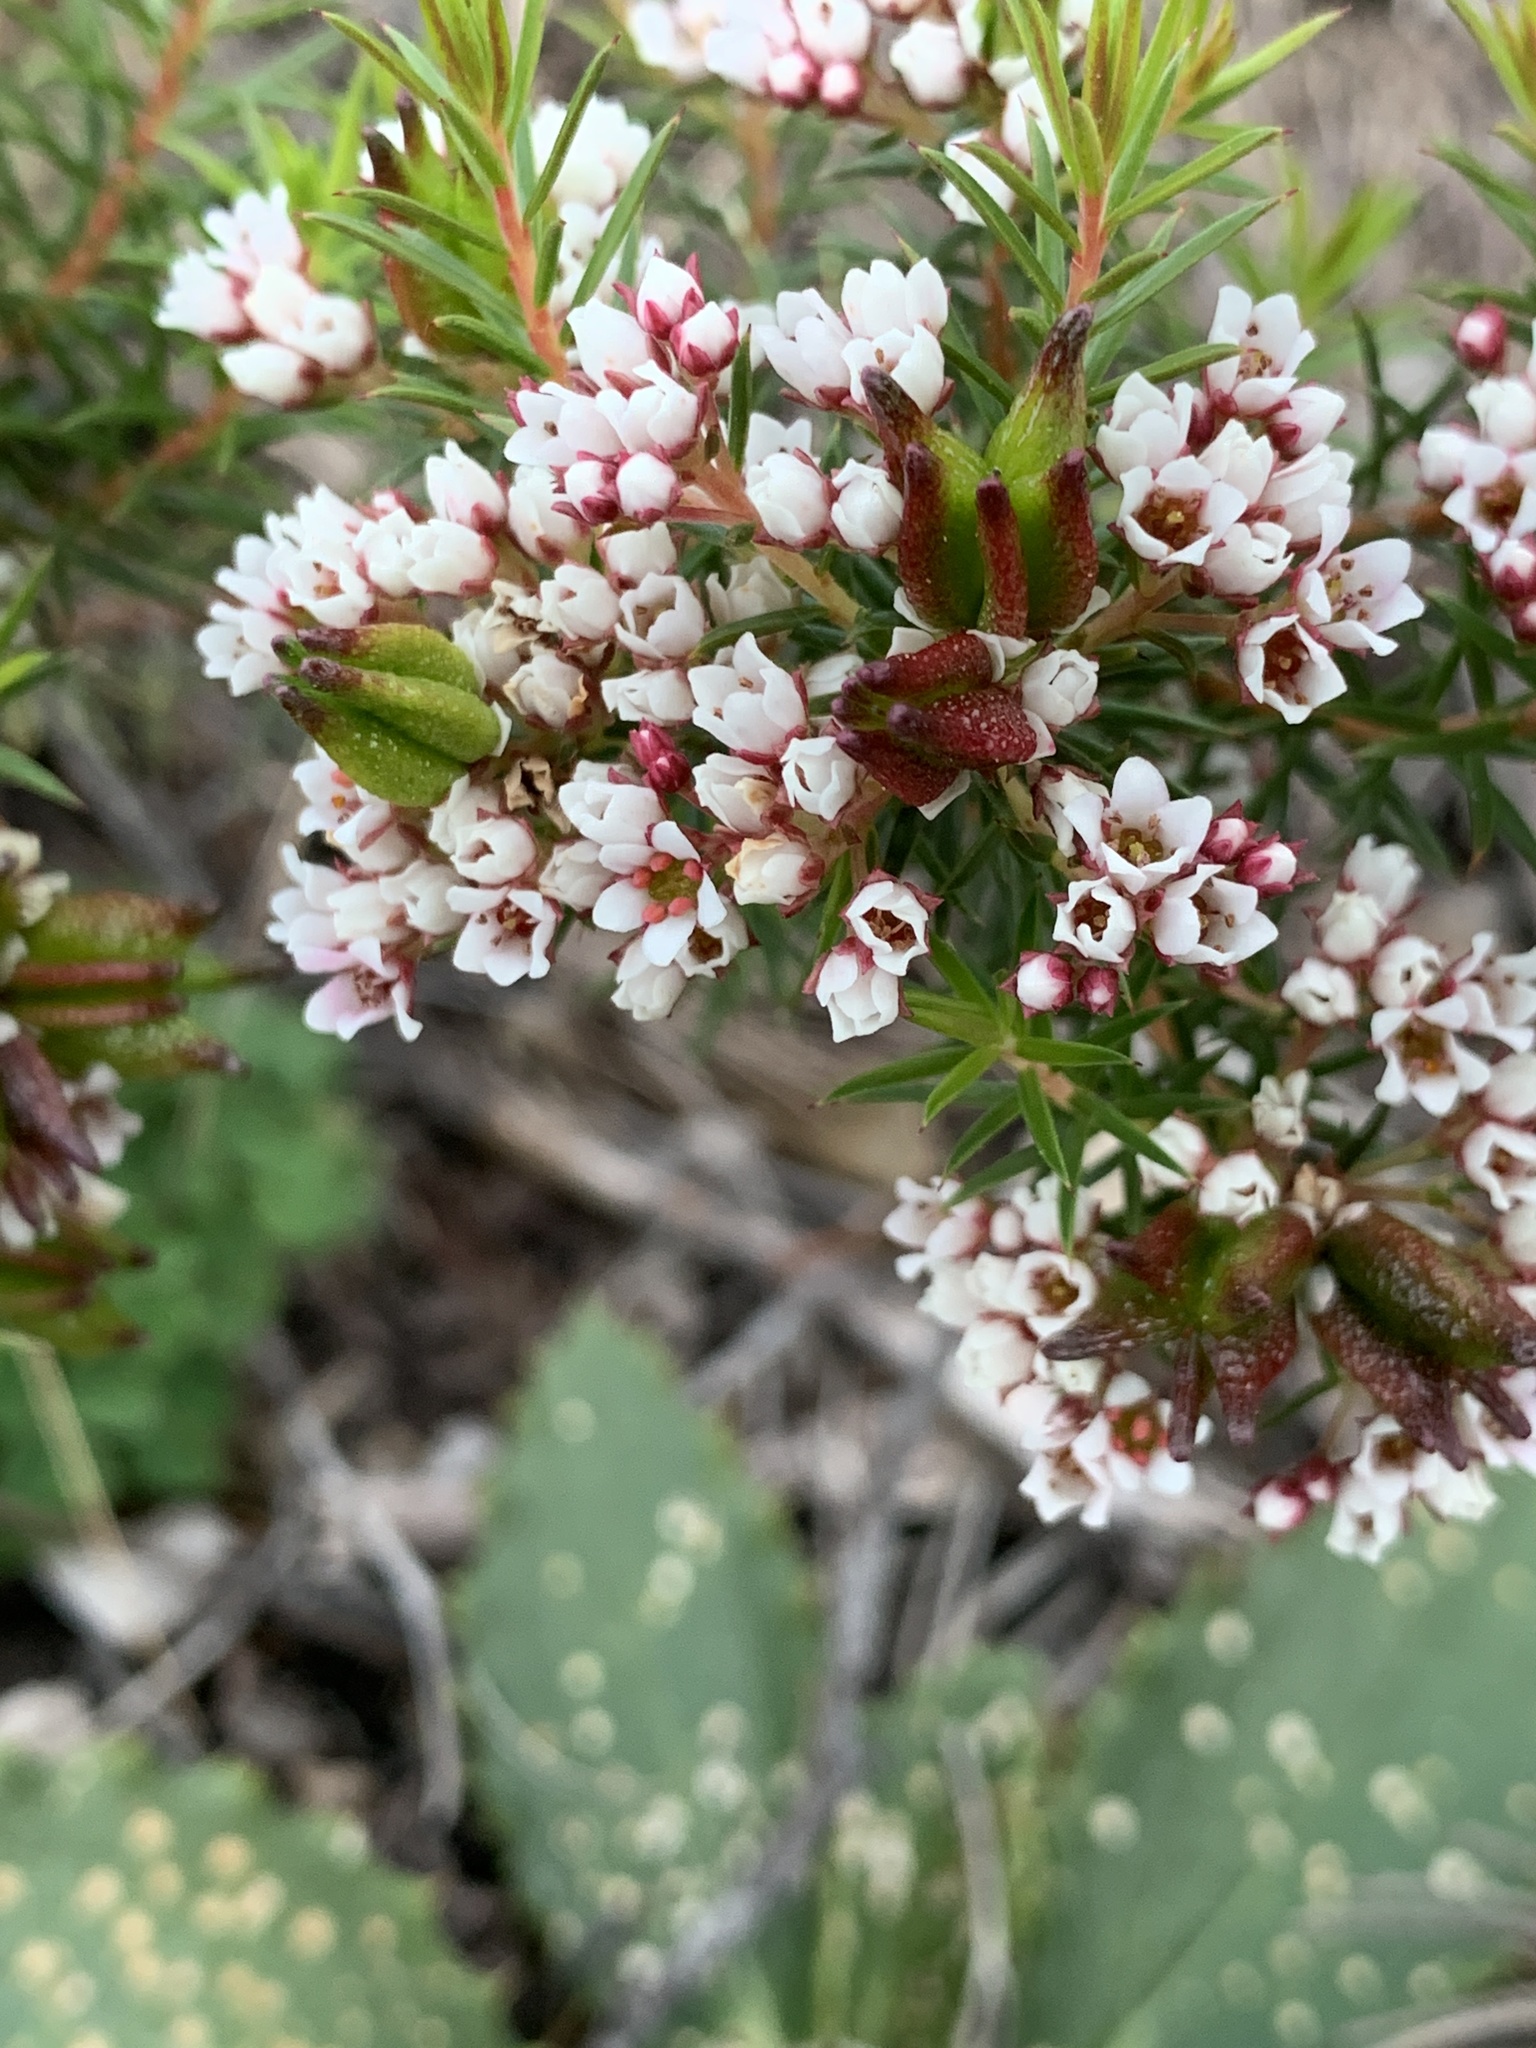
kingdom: Plantae
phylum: Tracheophyta
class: Magnoliopsida
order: Sapindales
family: Rutaceae
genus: Diosma
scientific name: Diosma hirsuta
